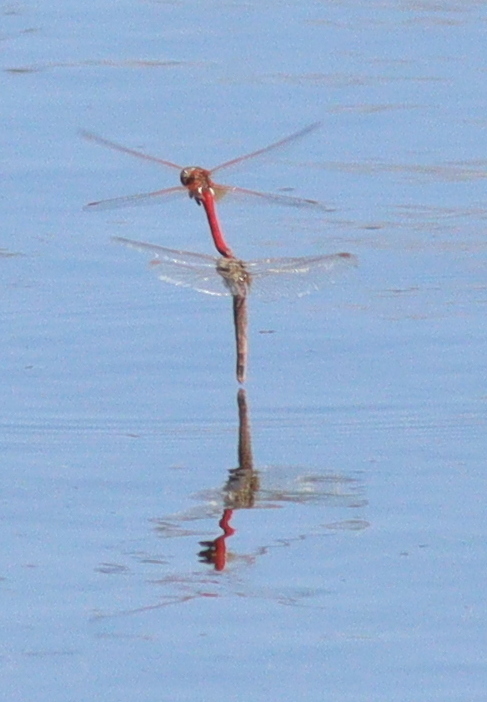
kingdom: Animalia
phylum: Arthropoda
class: Insecta
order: Odonata
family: Libellulidae
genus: Sympetrum
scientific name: Sympetrum fonscolombii
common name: Red-veined darter
